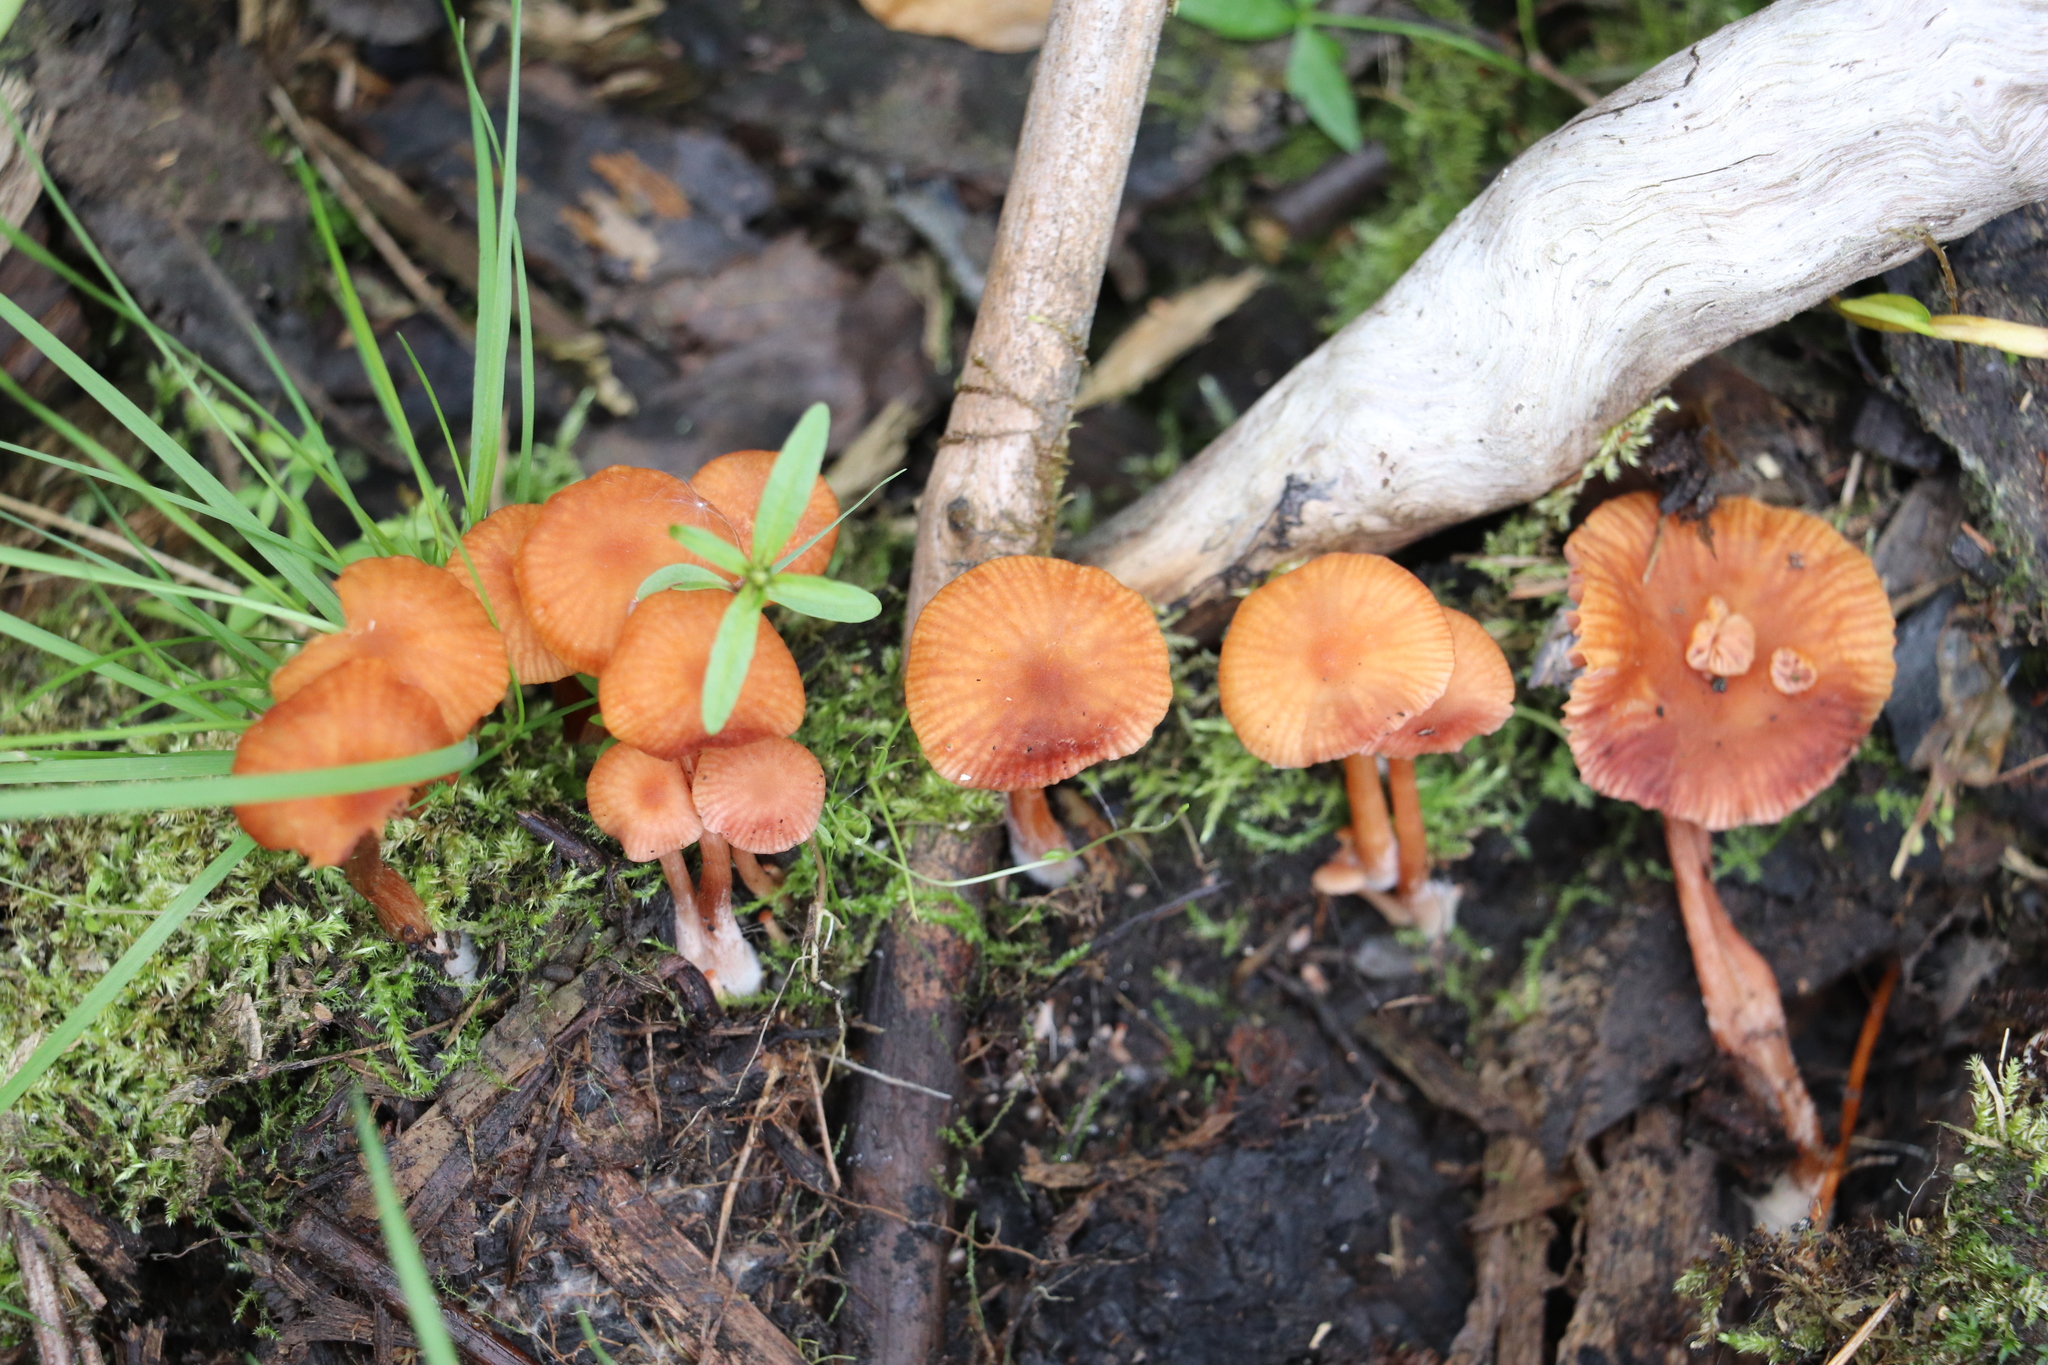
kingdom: Fungi
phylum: Basidiomycota
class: Agaricomycetes
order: Agaricales
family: Hydnangiaceae
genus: Laccaria
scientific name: Laccaria laccata
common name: Deceiver
